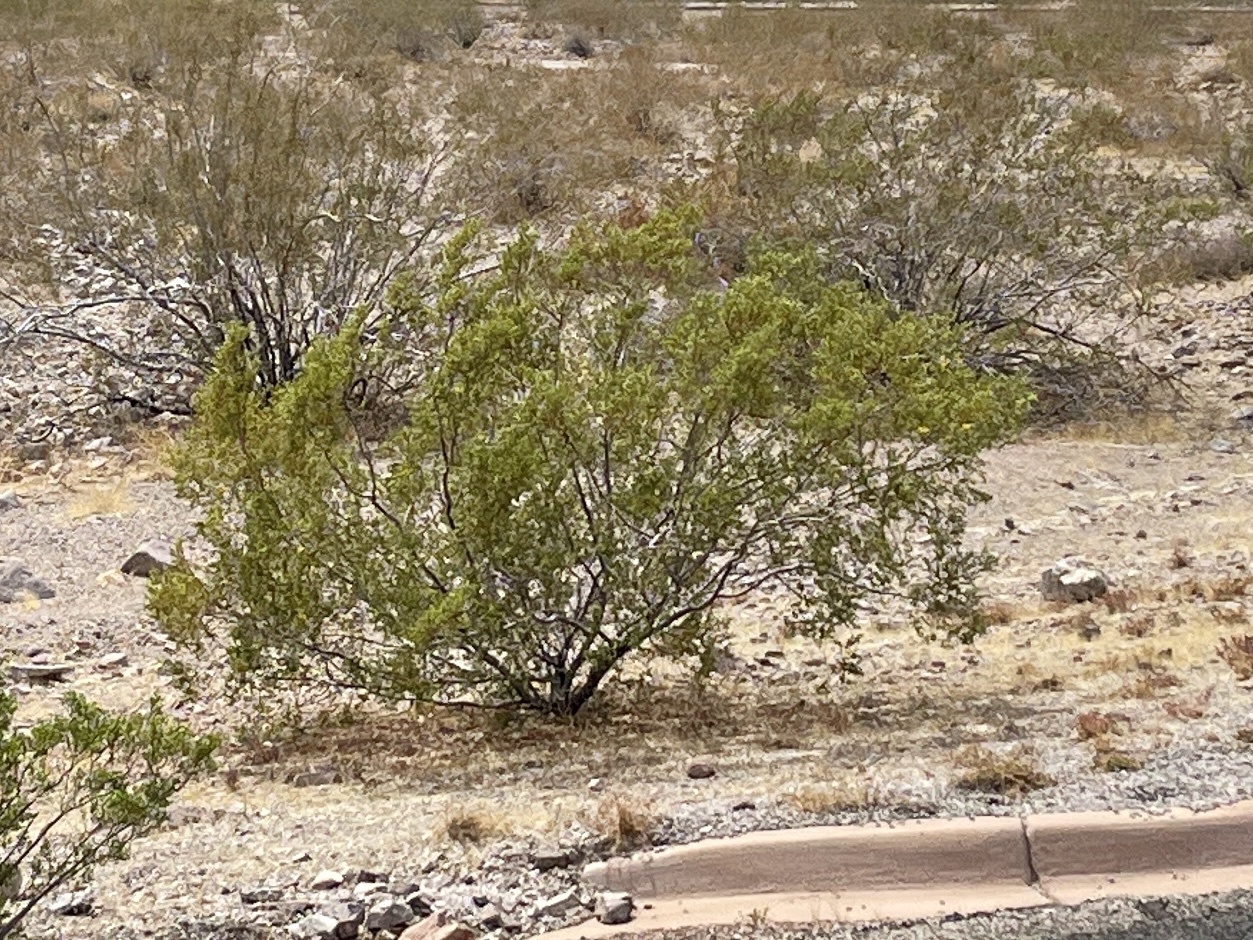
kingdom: Plantae
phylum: Tracheophyta
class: Magnoliopsida
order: Zygophyllales
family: Zygophyllaceae
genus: Larrea
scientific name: Larrea tridentata
